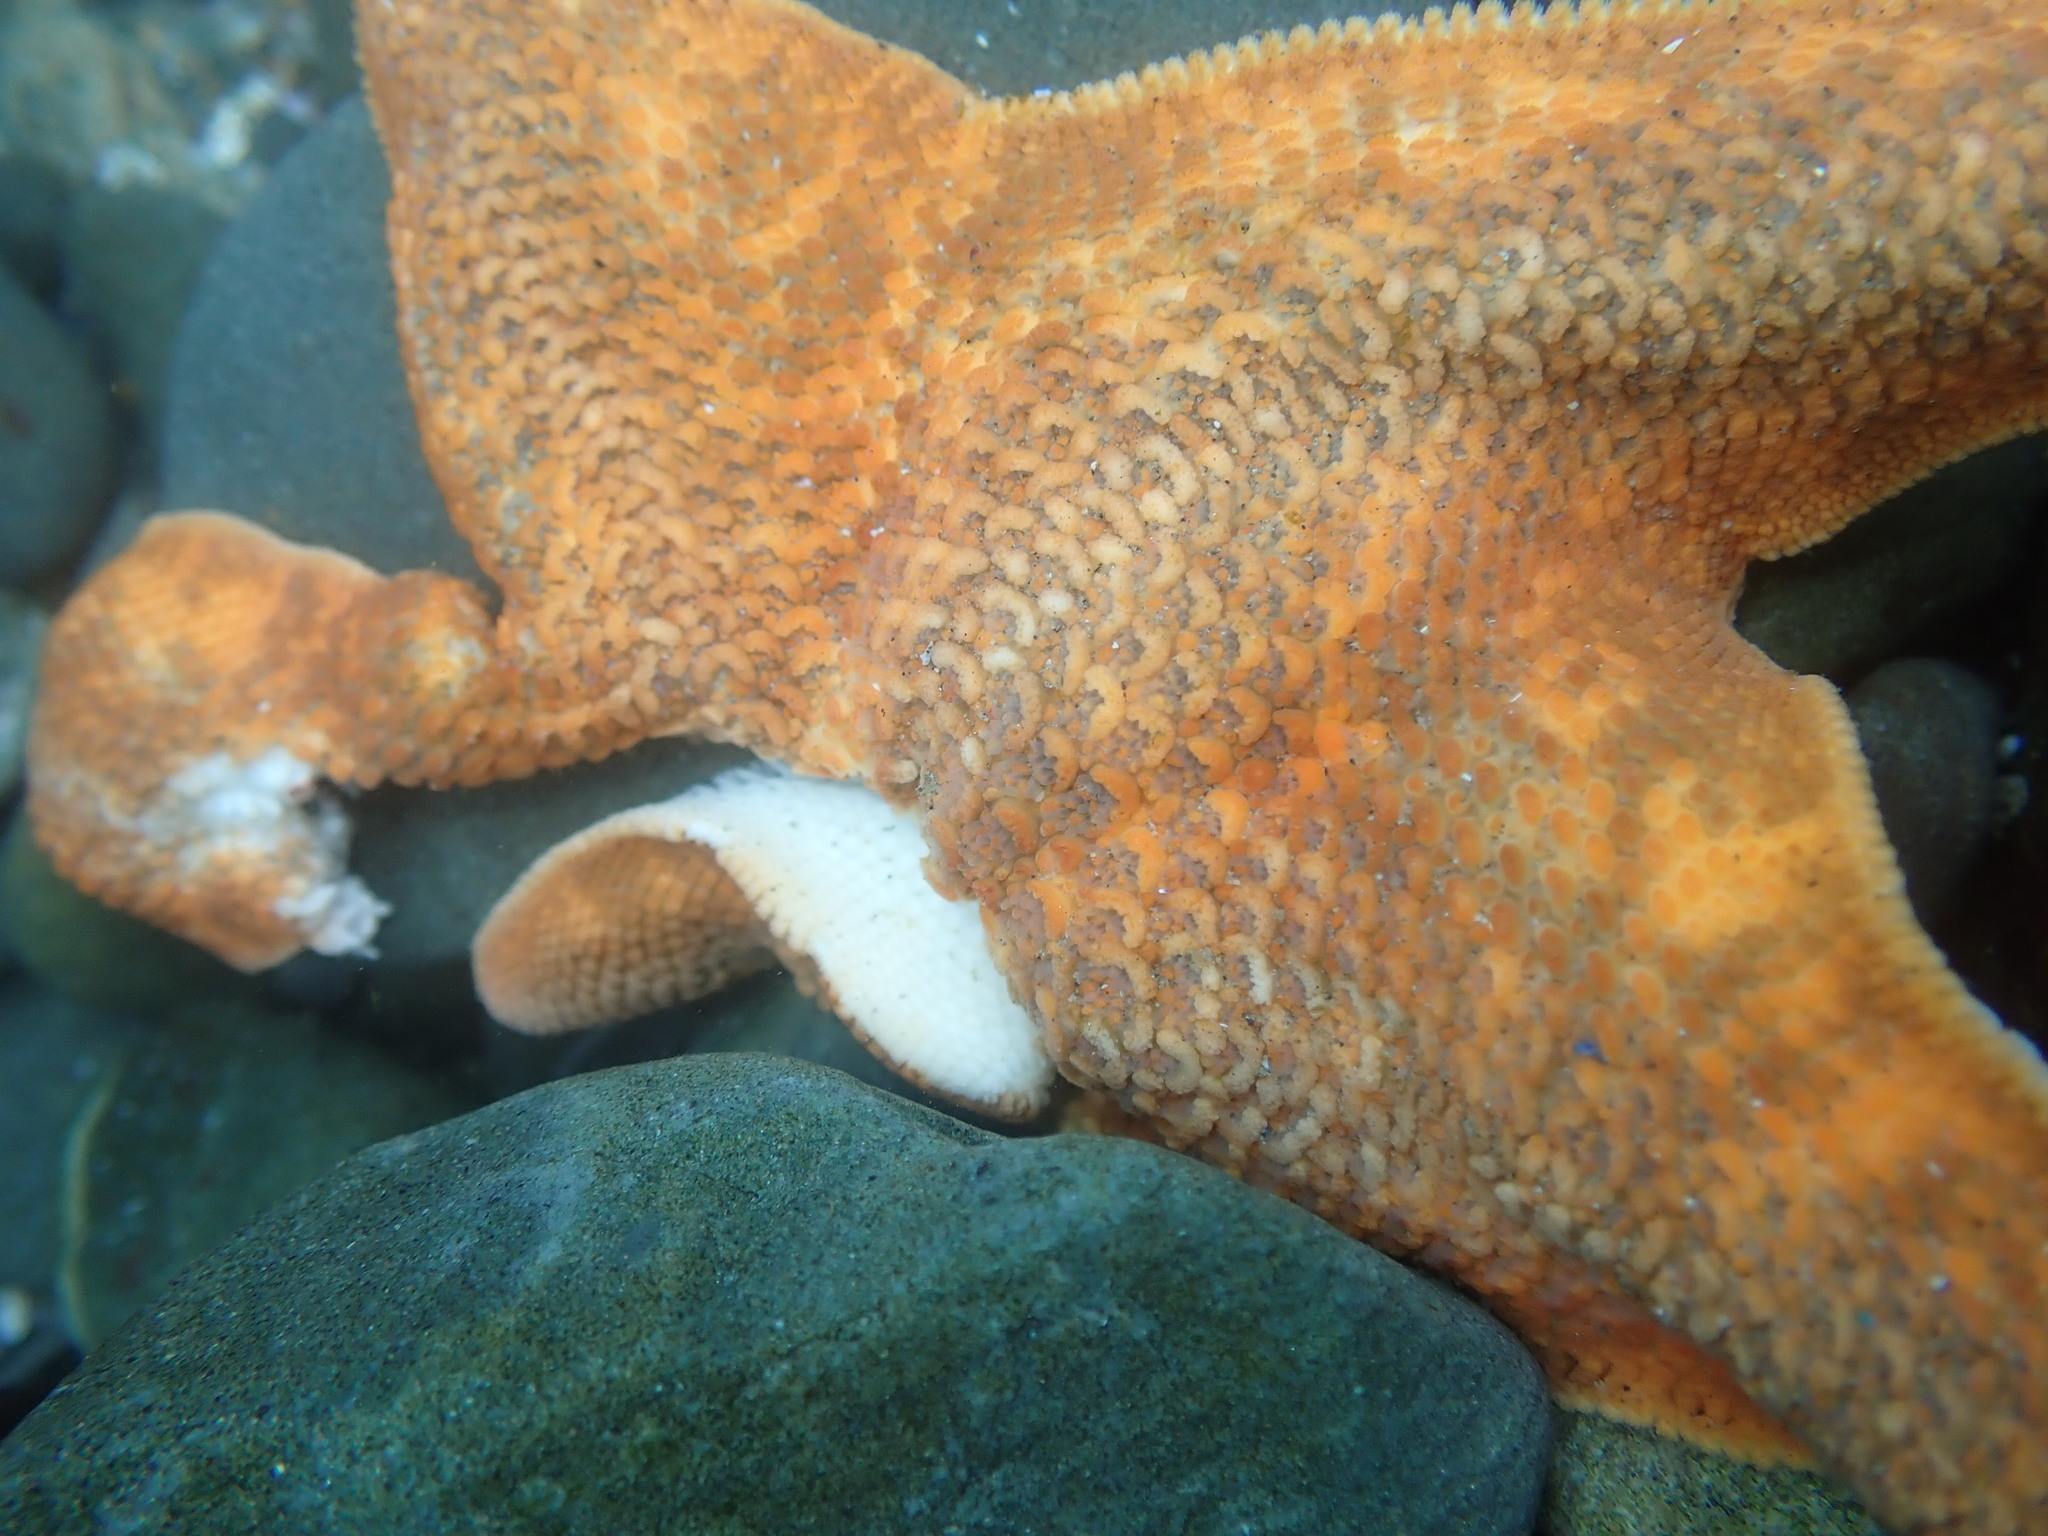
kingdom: Animalia
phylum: Echinodermata
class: Asteroidea
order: Valvatida
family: Asterinidae
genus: Patiria
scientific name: Patiria miniata
